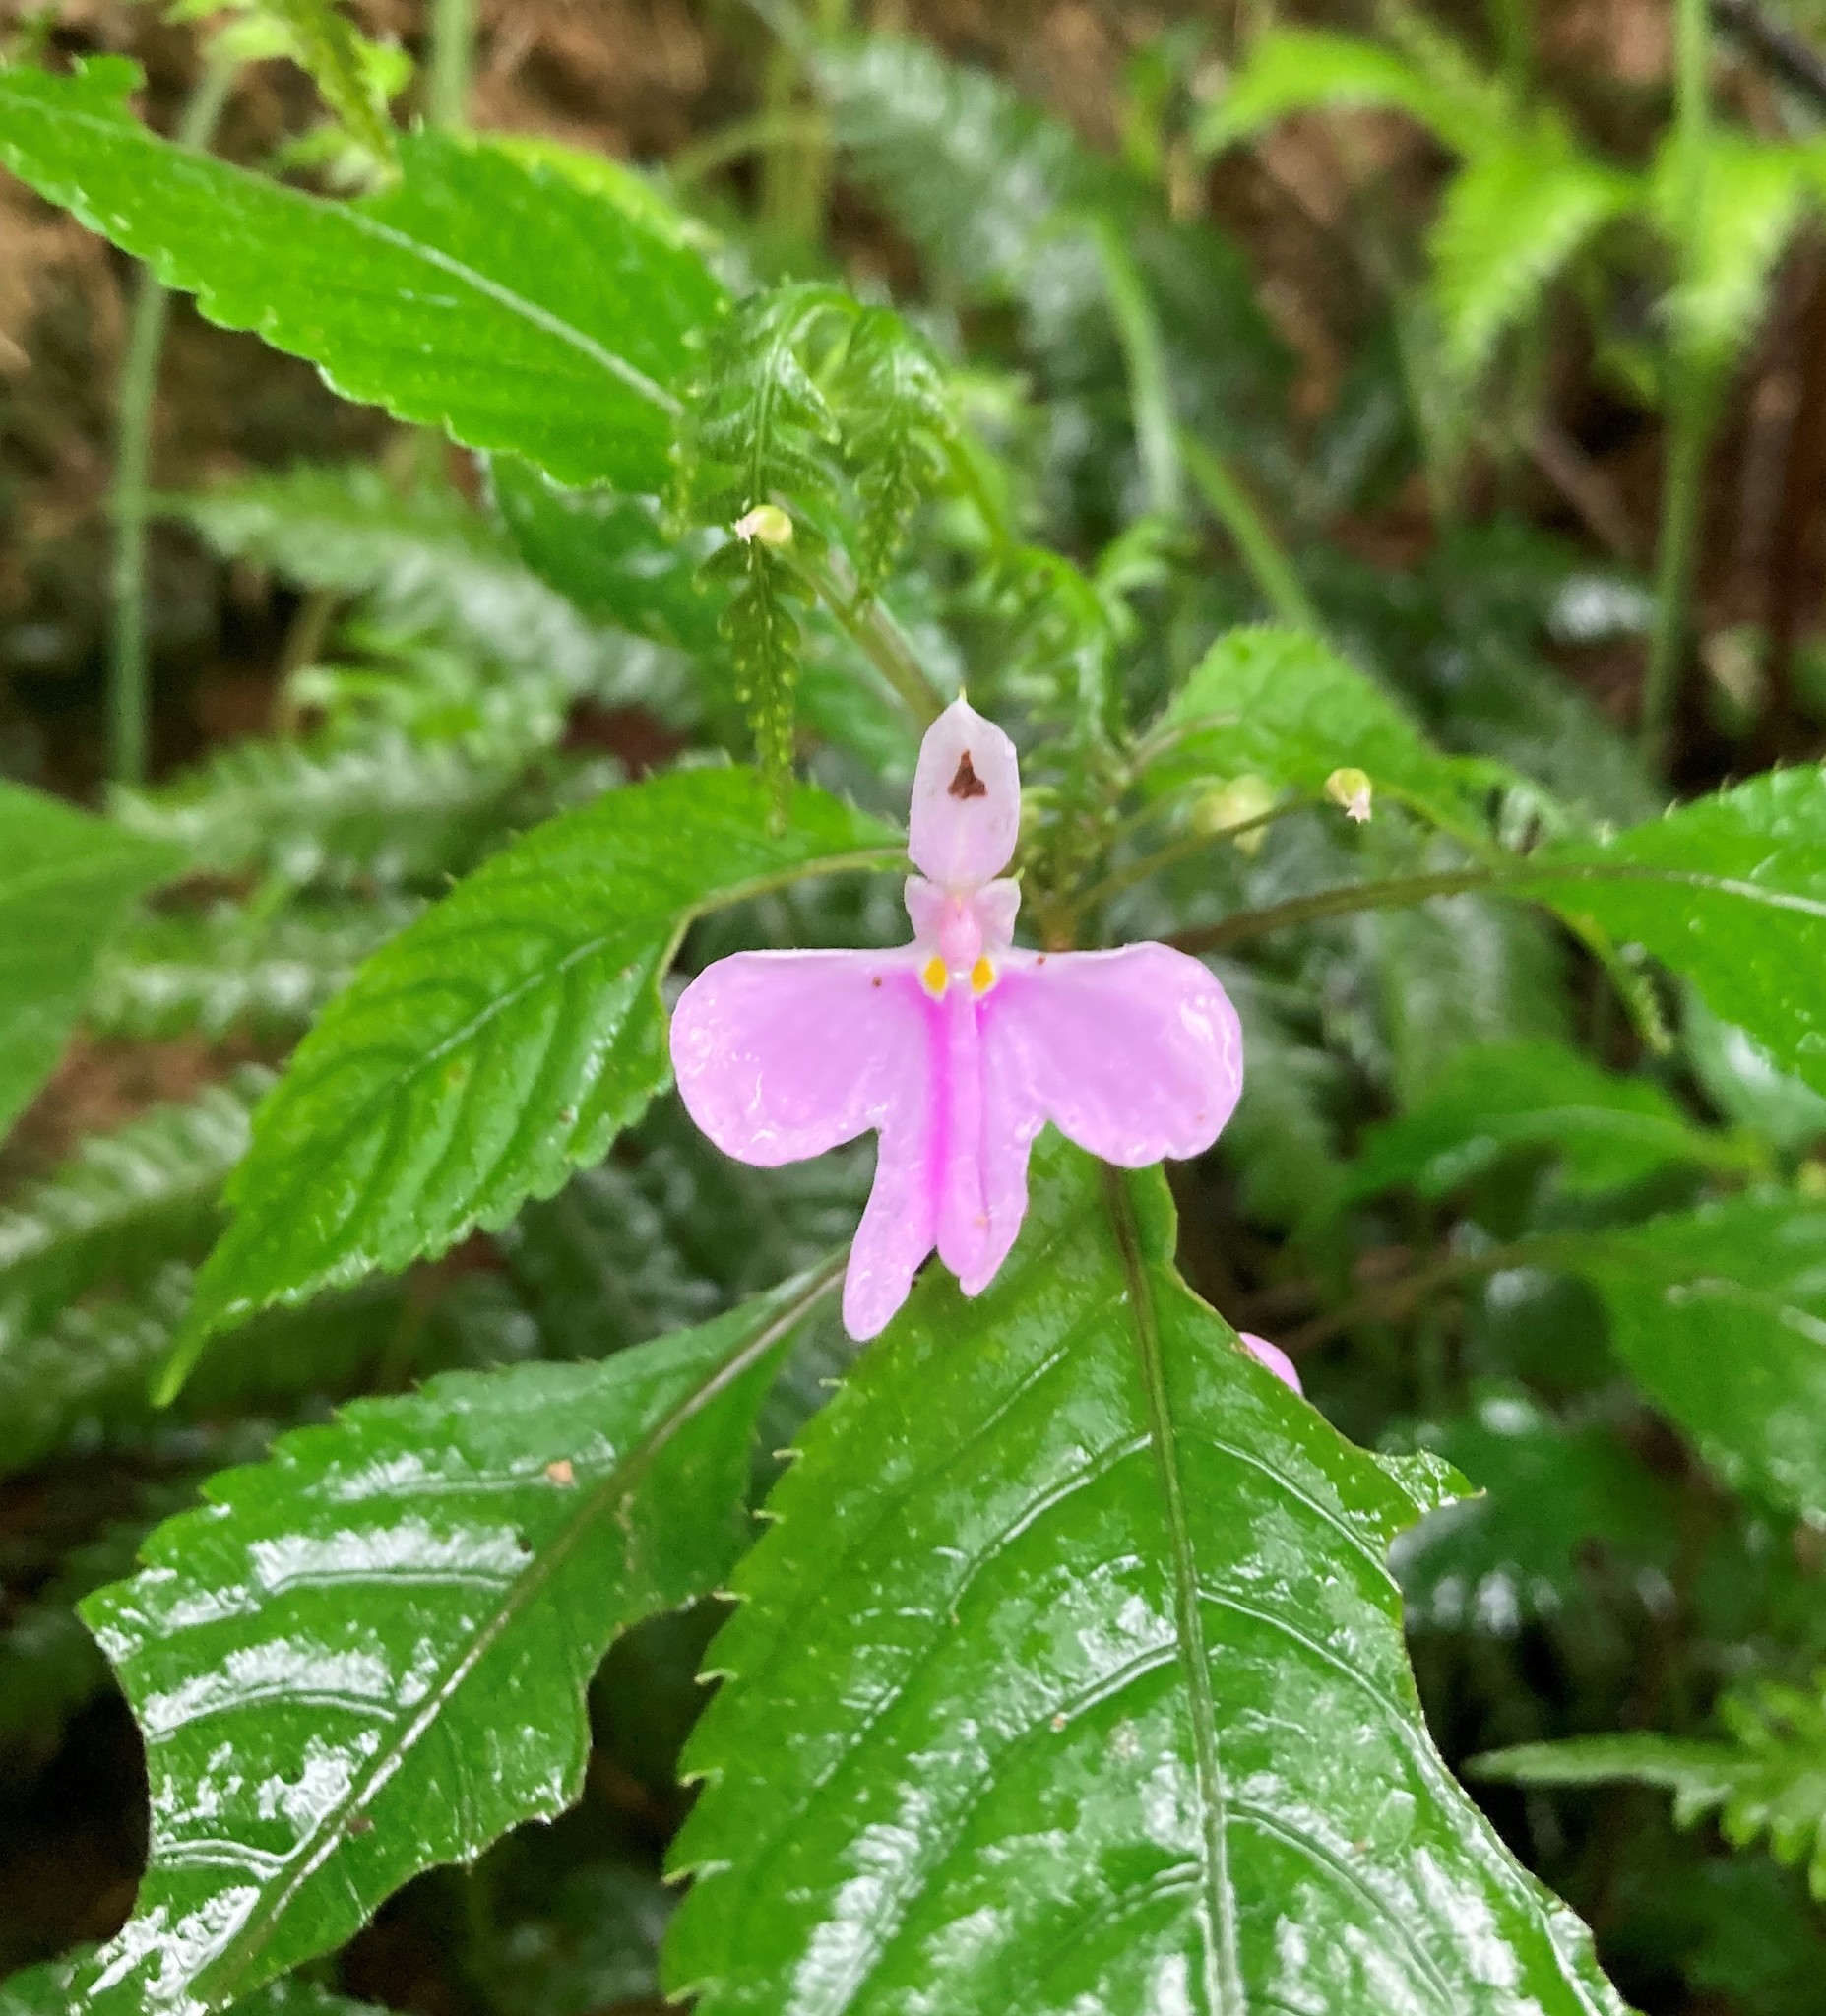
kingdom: Plantae
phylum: Tracheophyta
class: Magnoliopsida
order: Ericales
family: Balsaminaceae
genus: Impatiens
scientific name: Impatiens hochstetteri
